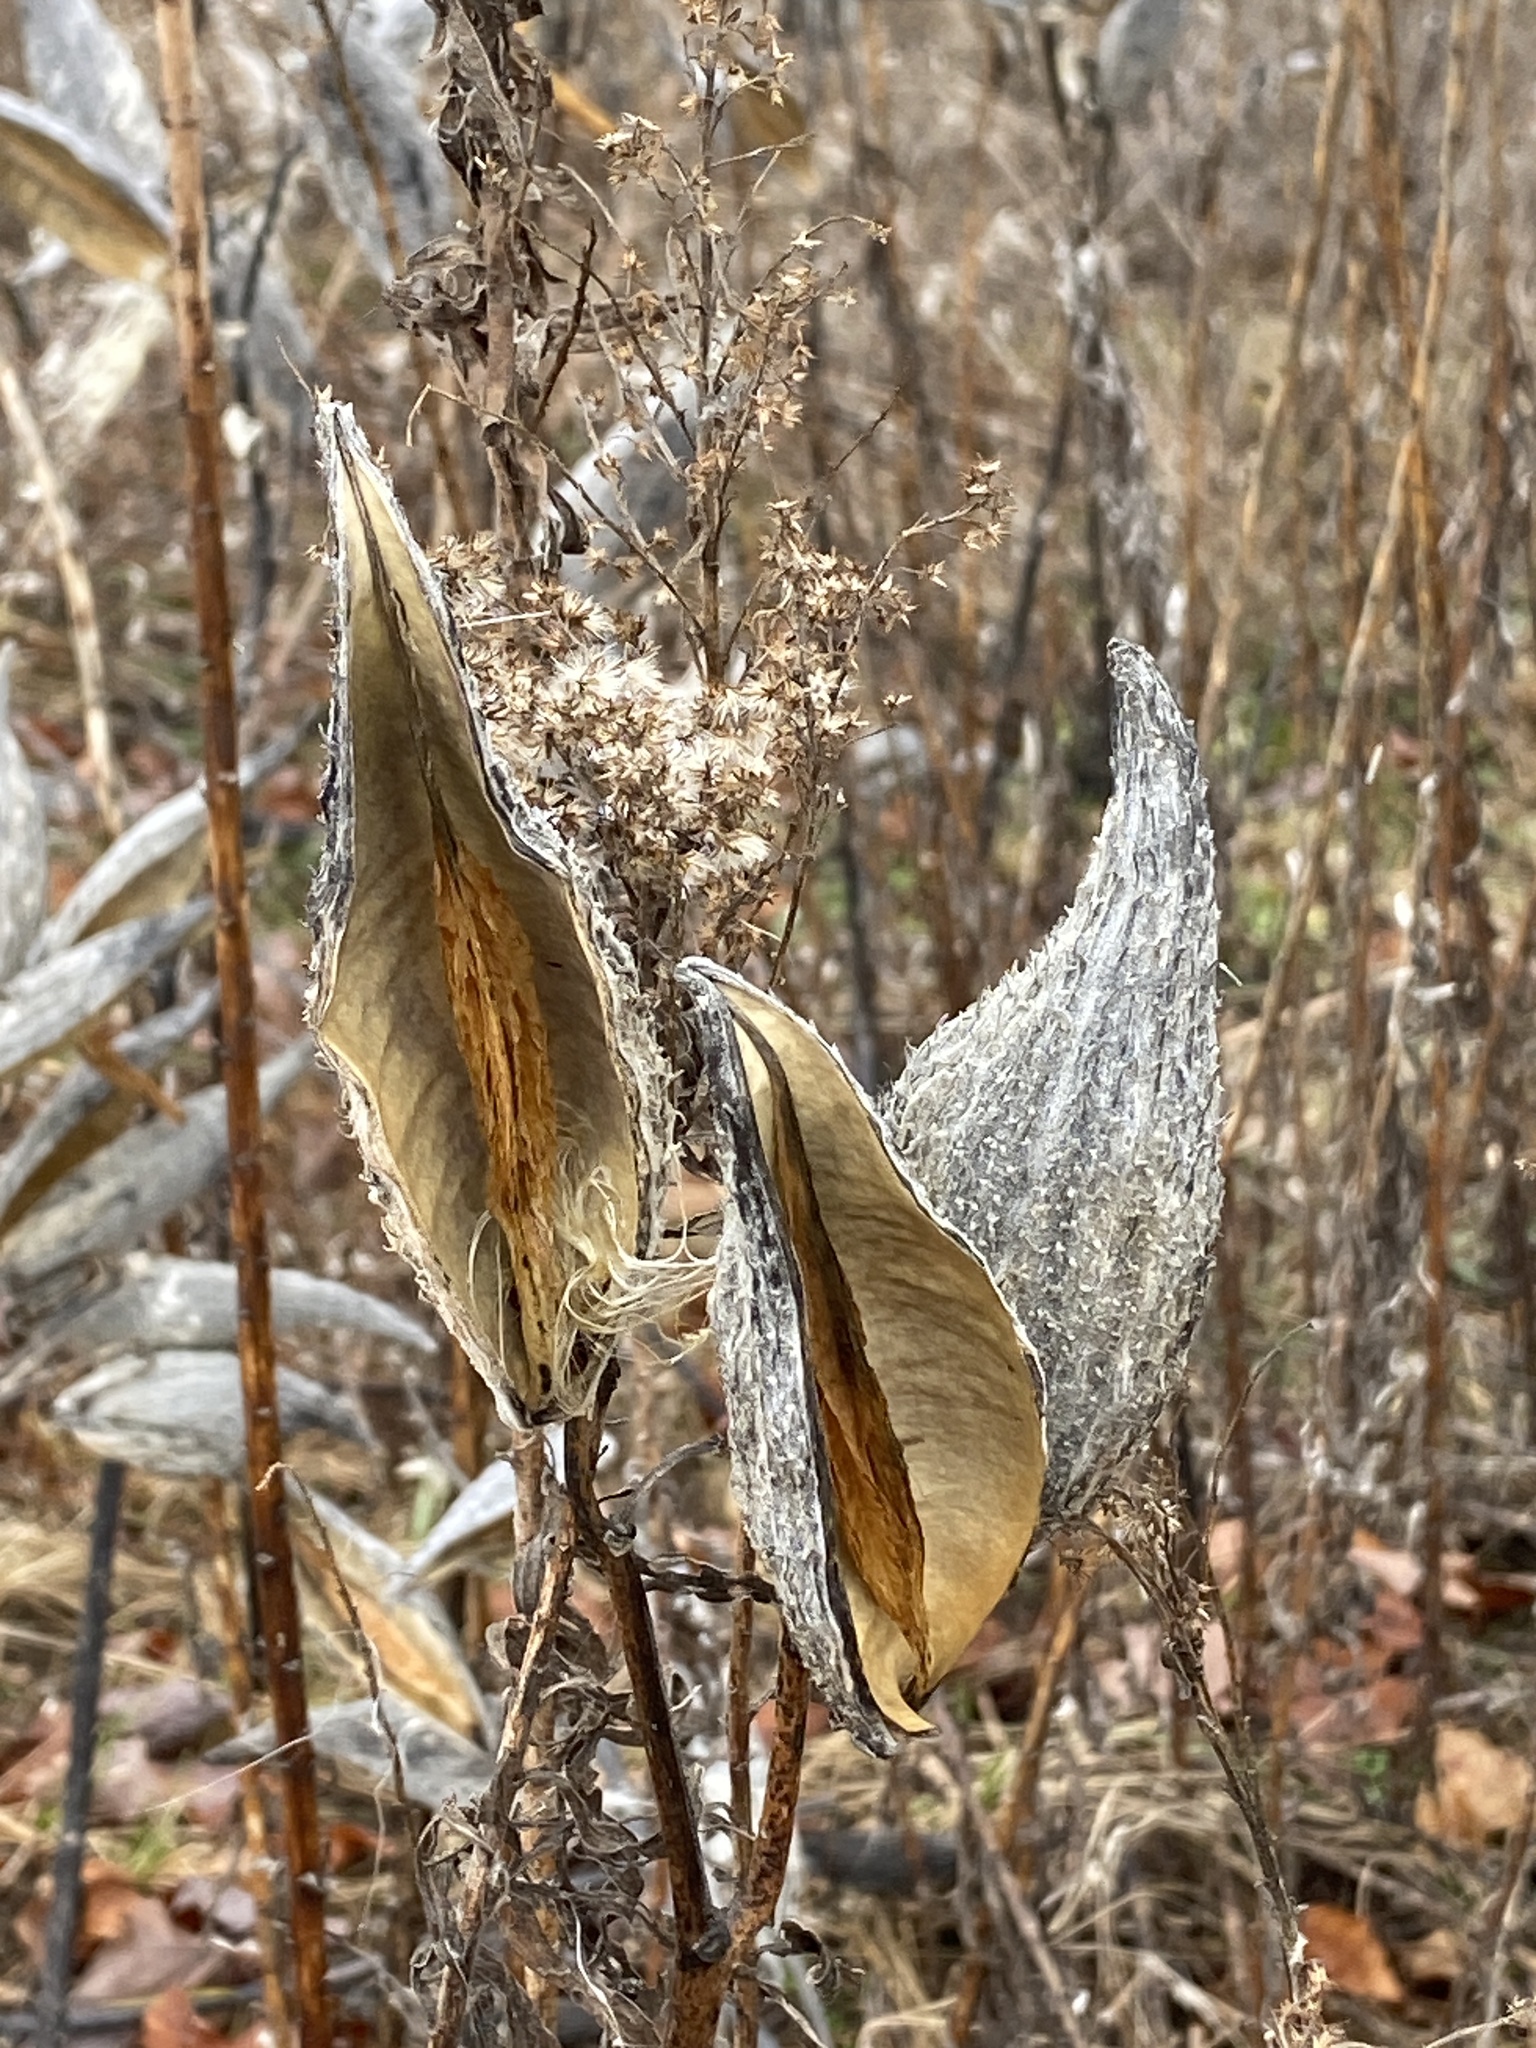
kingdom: Plantae
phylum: Tracheophyta
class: Magnoliopsida
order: Gentianales
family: Apocynaceae
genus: Asclepias
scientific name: Asclepias syriaca
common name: Common milkweed
